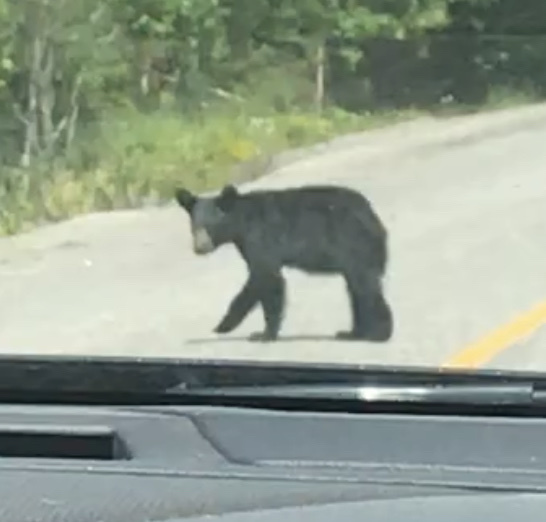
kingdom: Animalia
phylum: Chordata
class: Mammalia
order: Carnivora
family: Ursidae
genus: Ursus
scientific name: Ursus americanus
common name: American black bear
